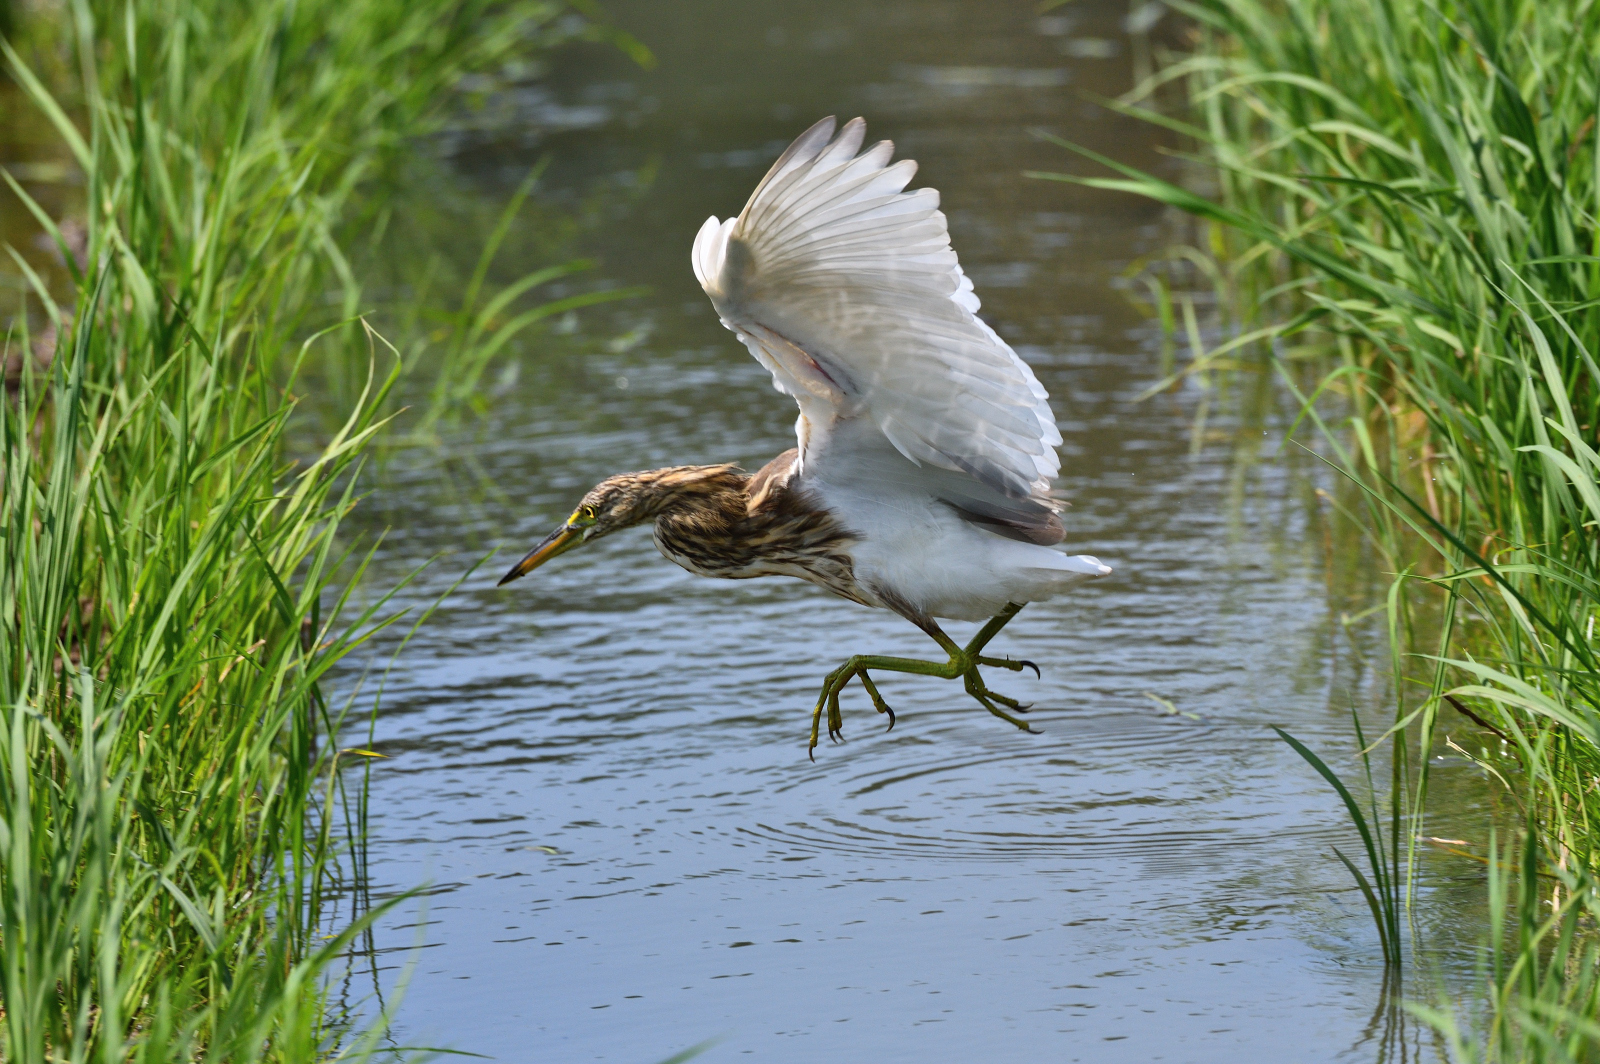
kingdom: Animalia
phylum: Chordata
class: Aves
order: Pelecaniformes
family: Ardeidae
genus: Ardeola
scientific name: Ardeola grayii
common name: Indian pond heron
